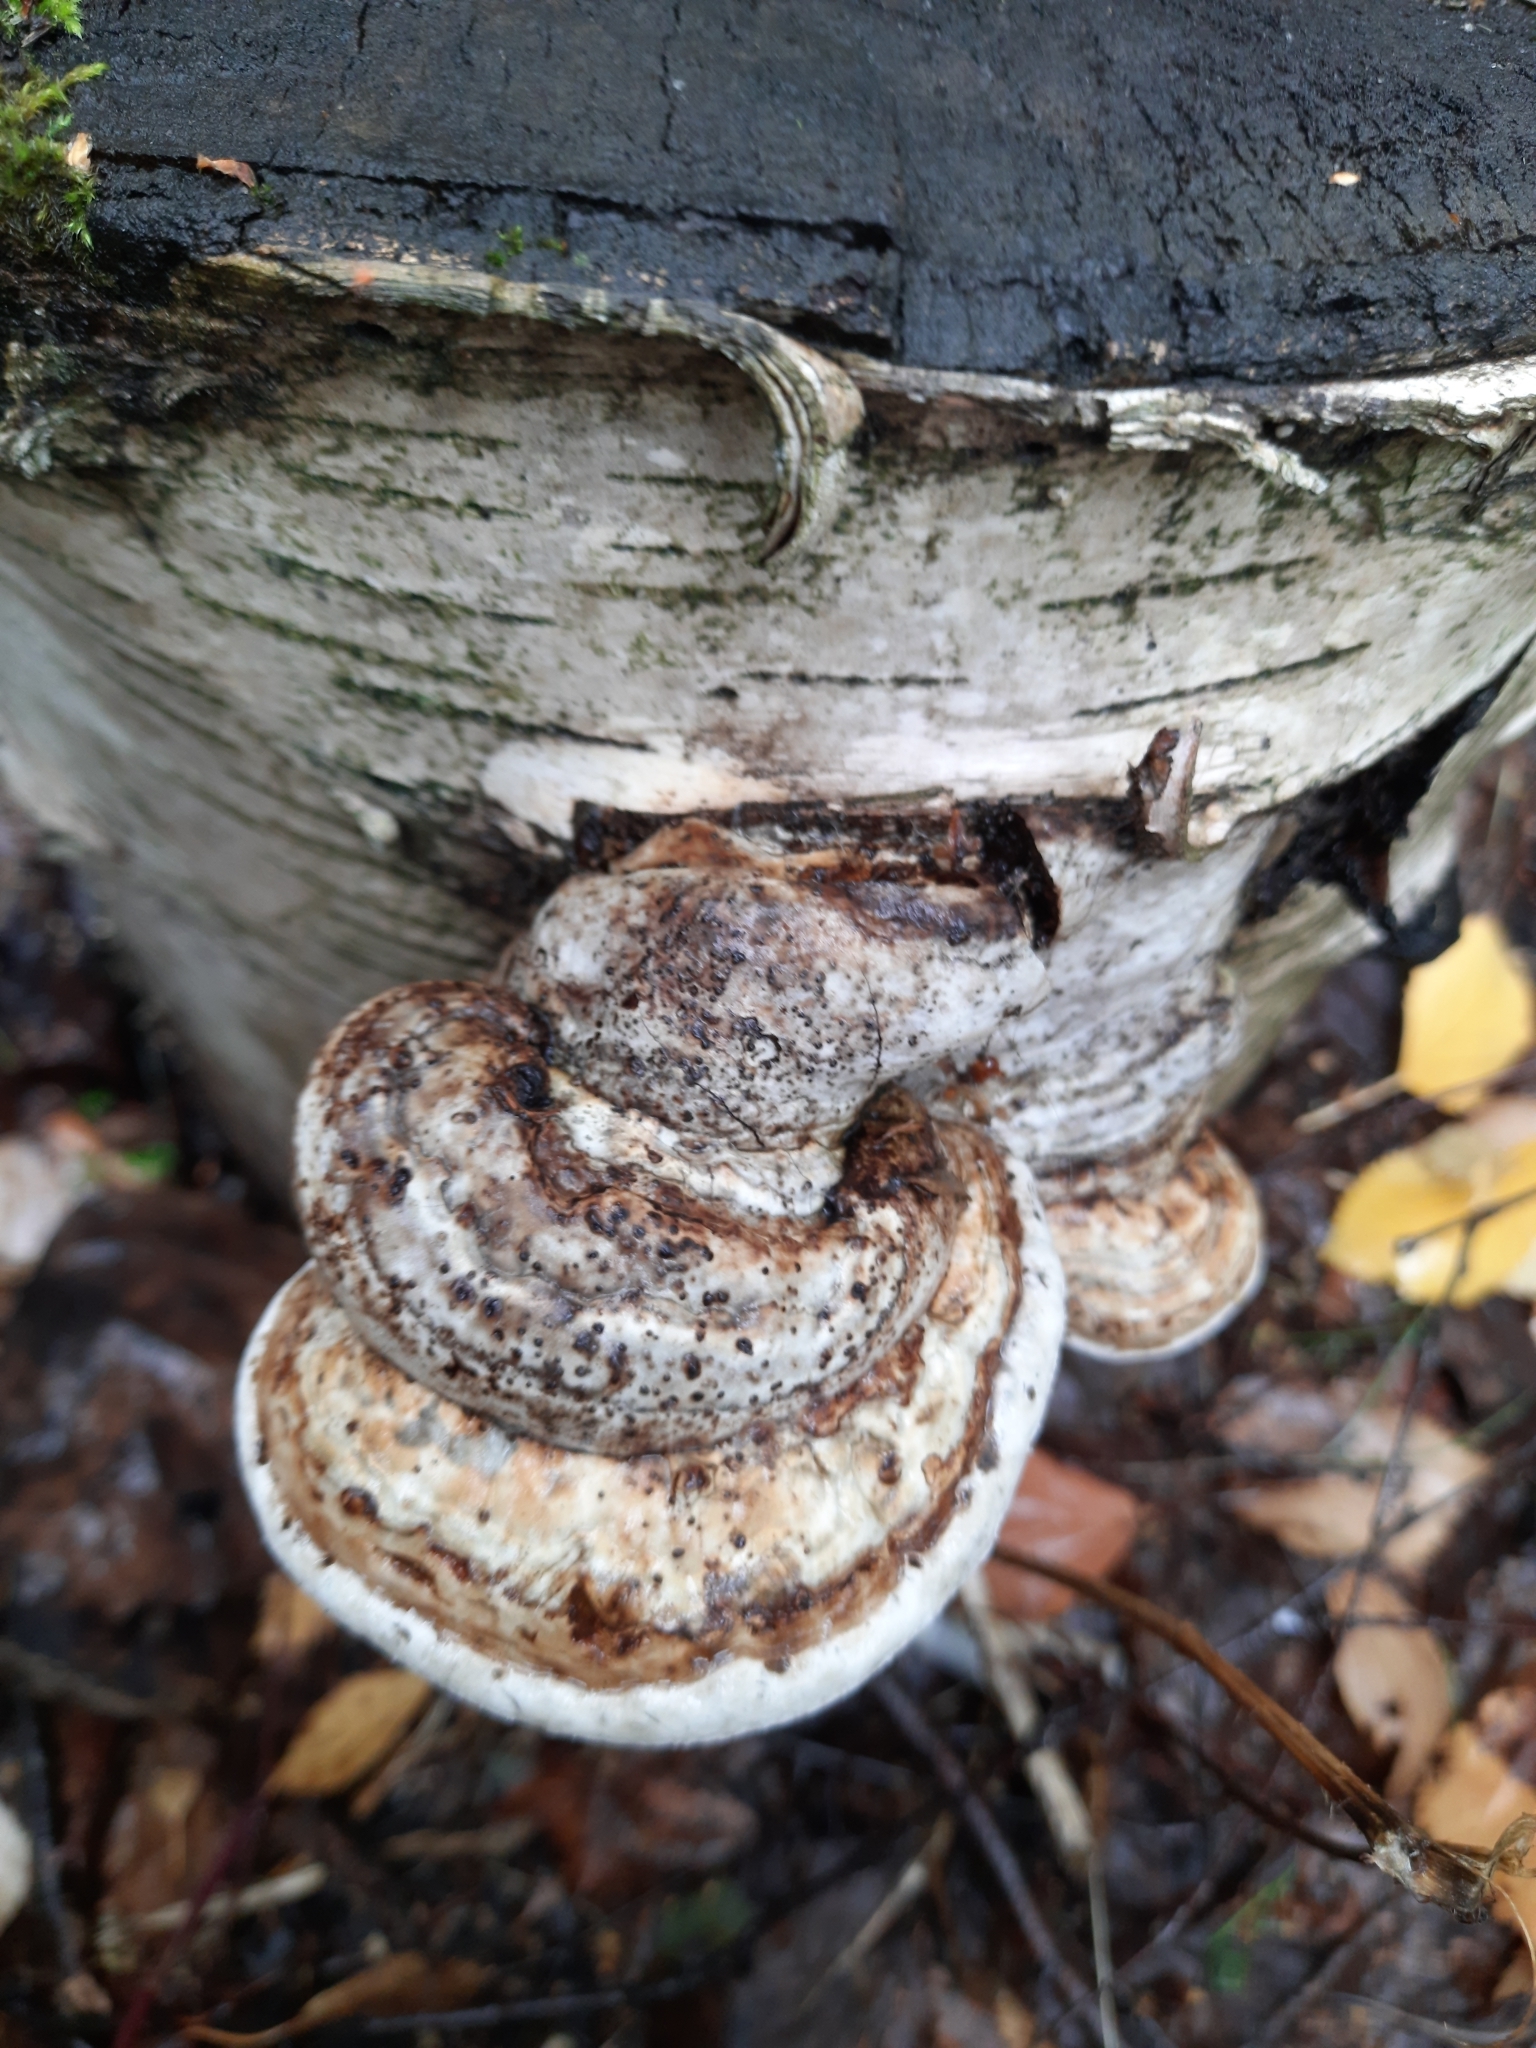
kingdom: Fungi
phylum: Basidiomycota
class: Agaricomycetes
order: Polyporales
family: Polyporaceae
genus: Fomes
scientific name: Fomes fomentarius
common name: Hoof fungus
